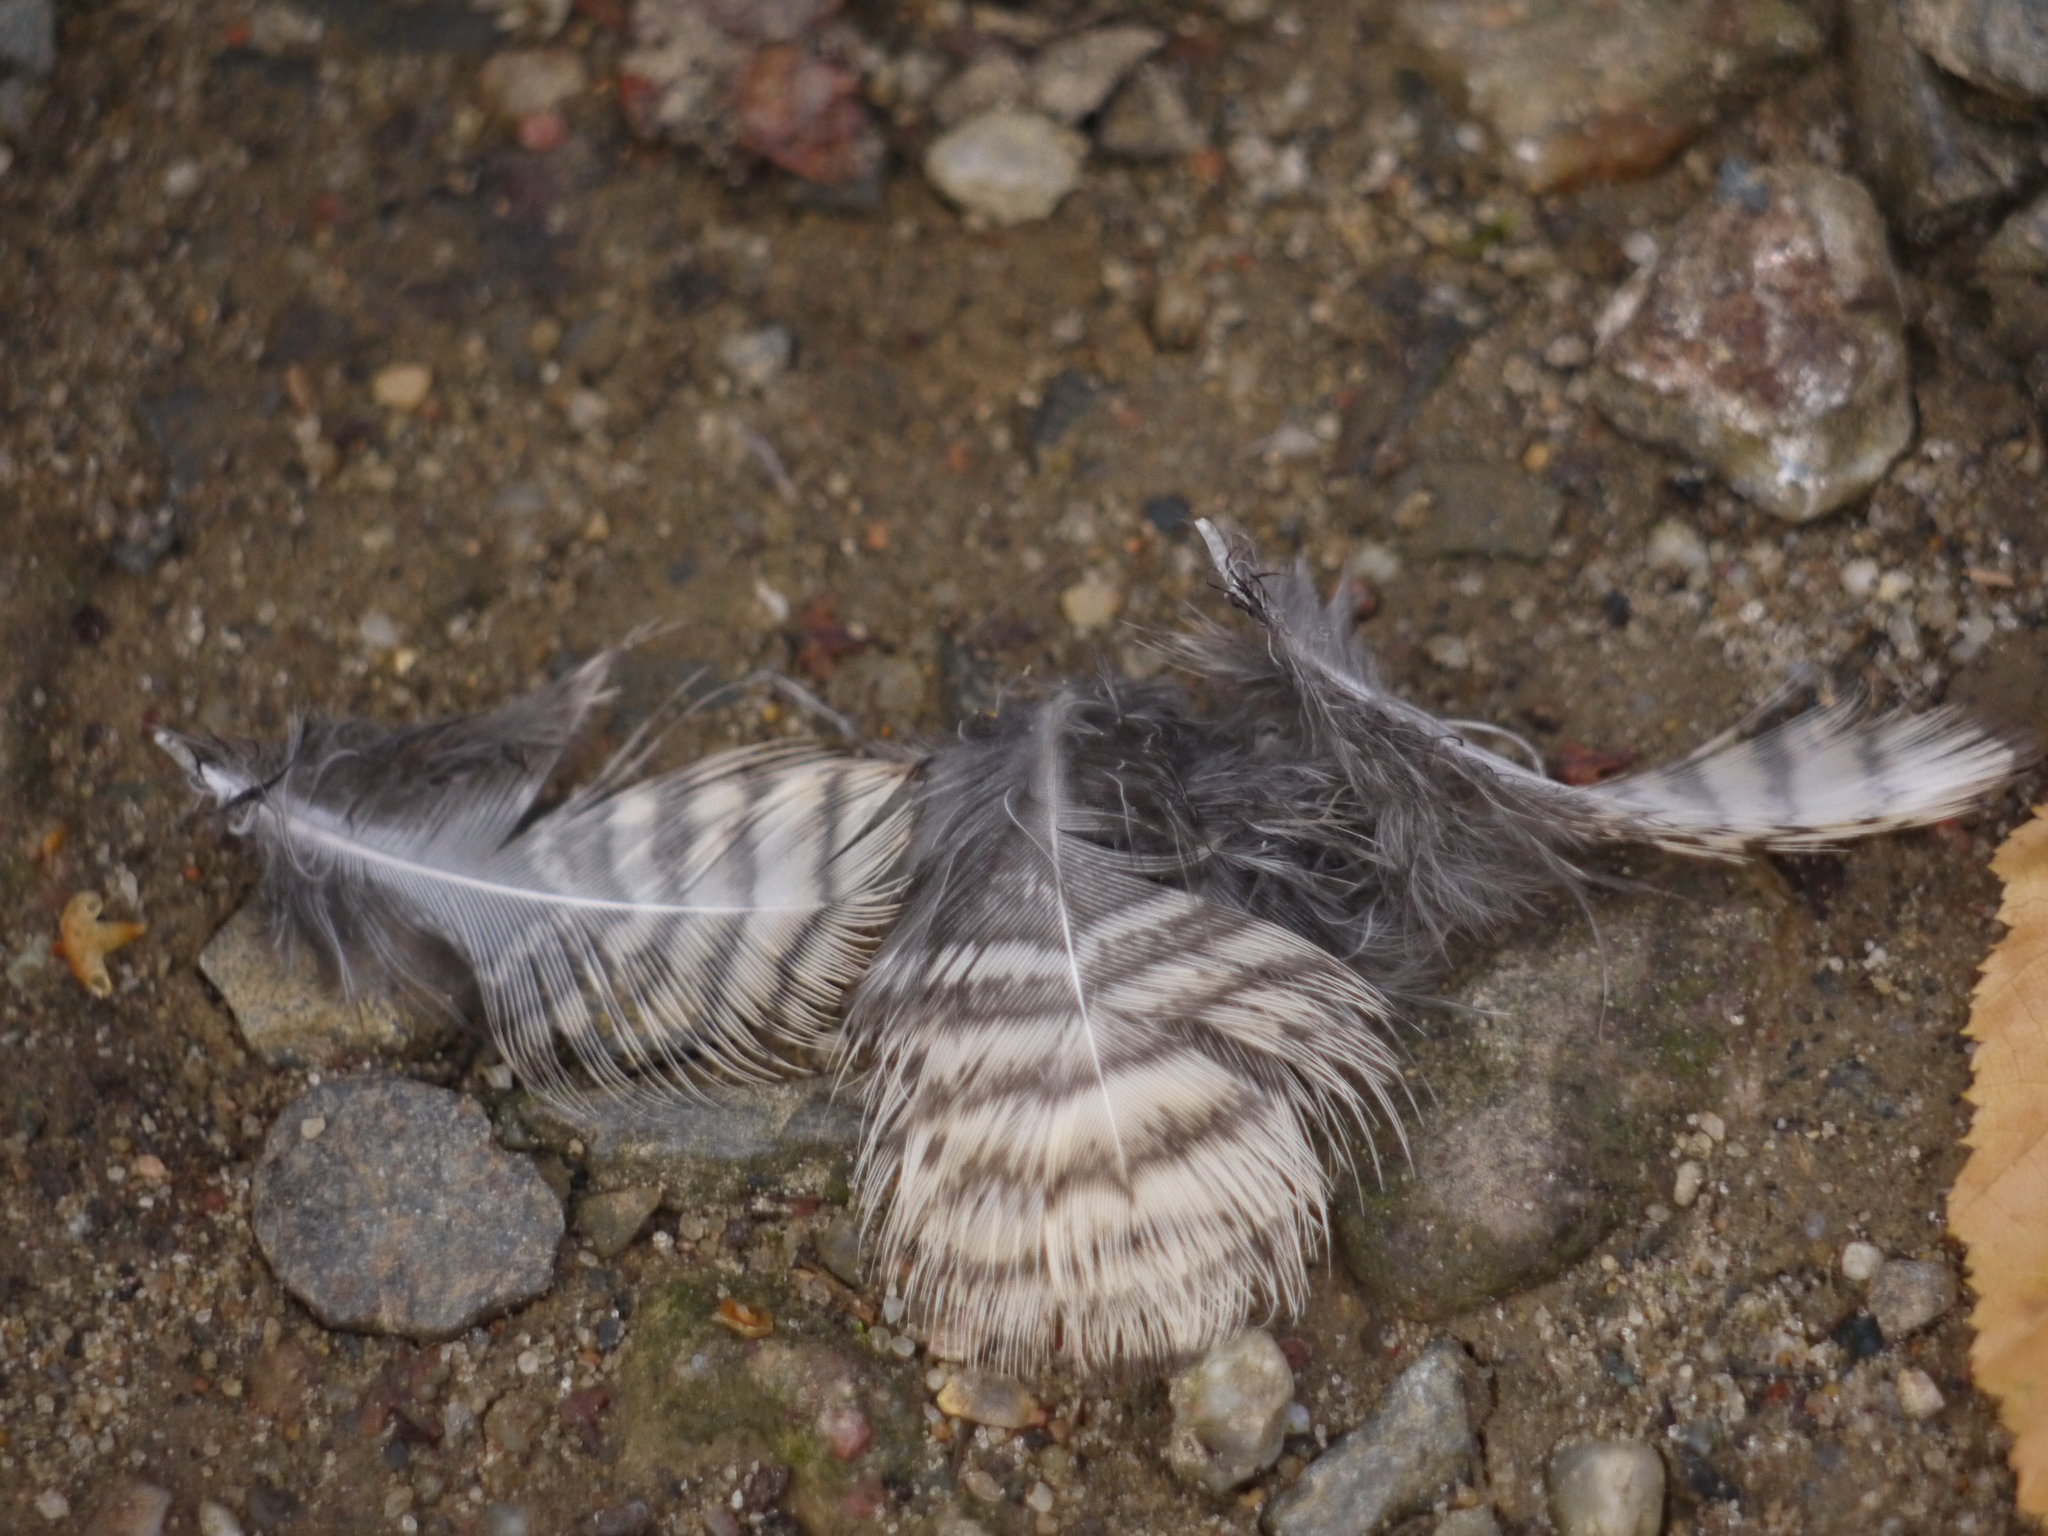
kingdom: Animalia
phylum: Chordata
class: Aves
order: Charadriiformes
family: Scolopacidae
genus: Scolopax
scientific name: Scolopax rusticola
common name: Eurasian woodcock
